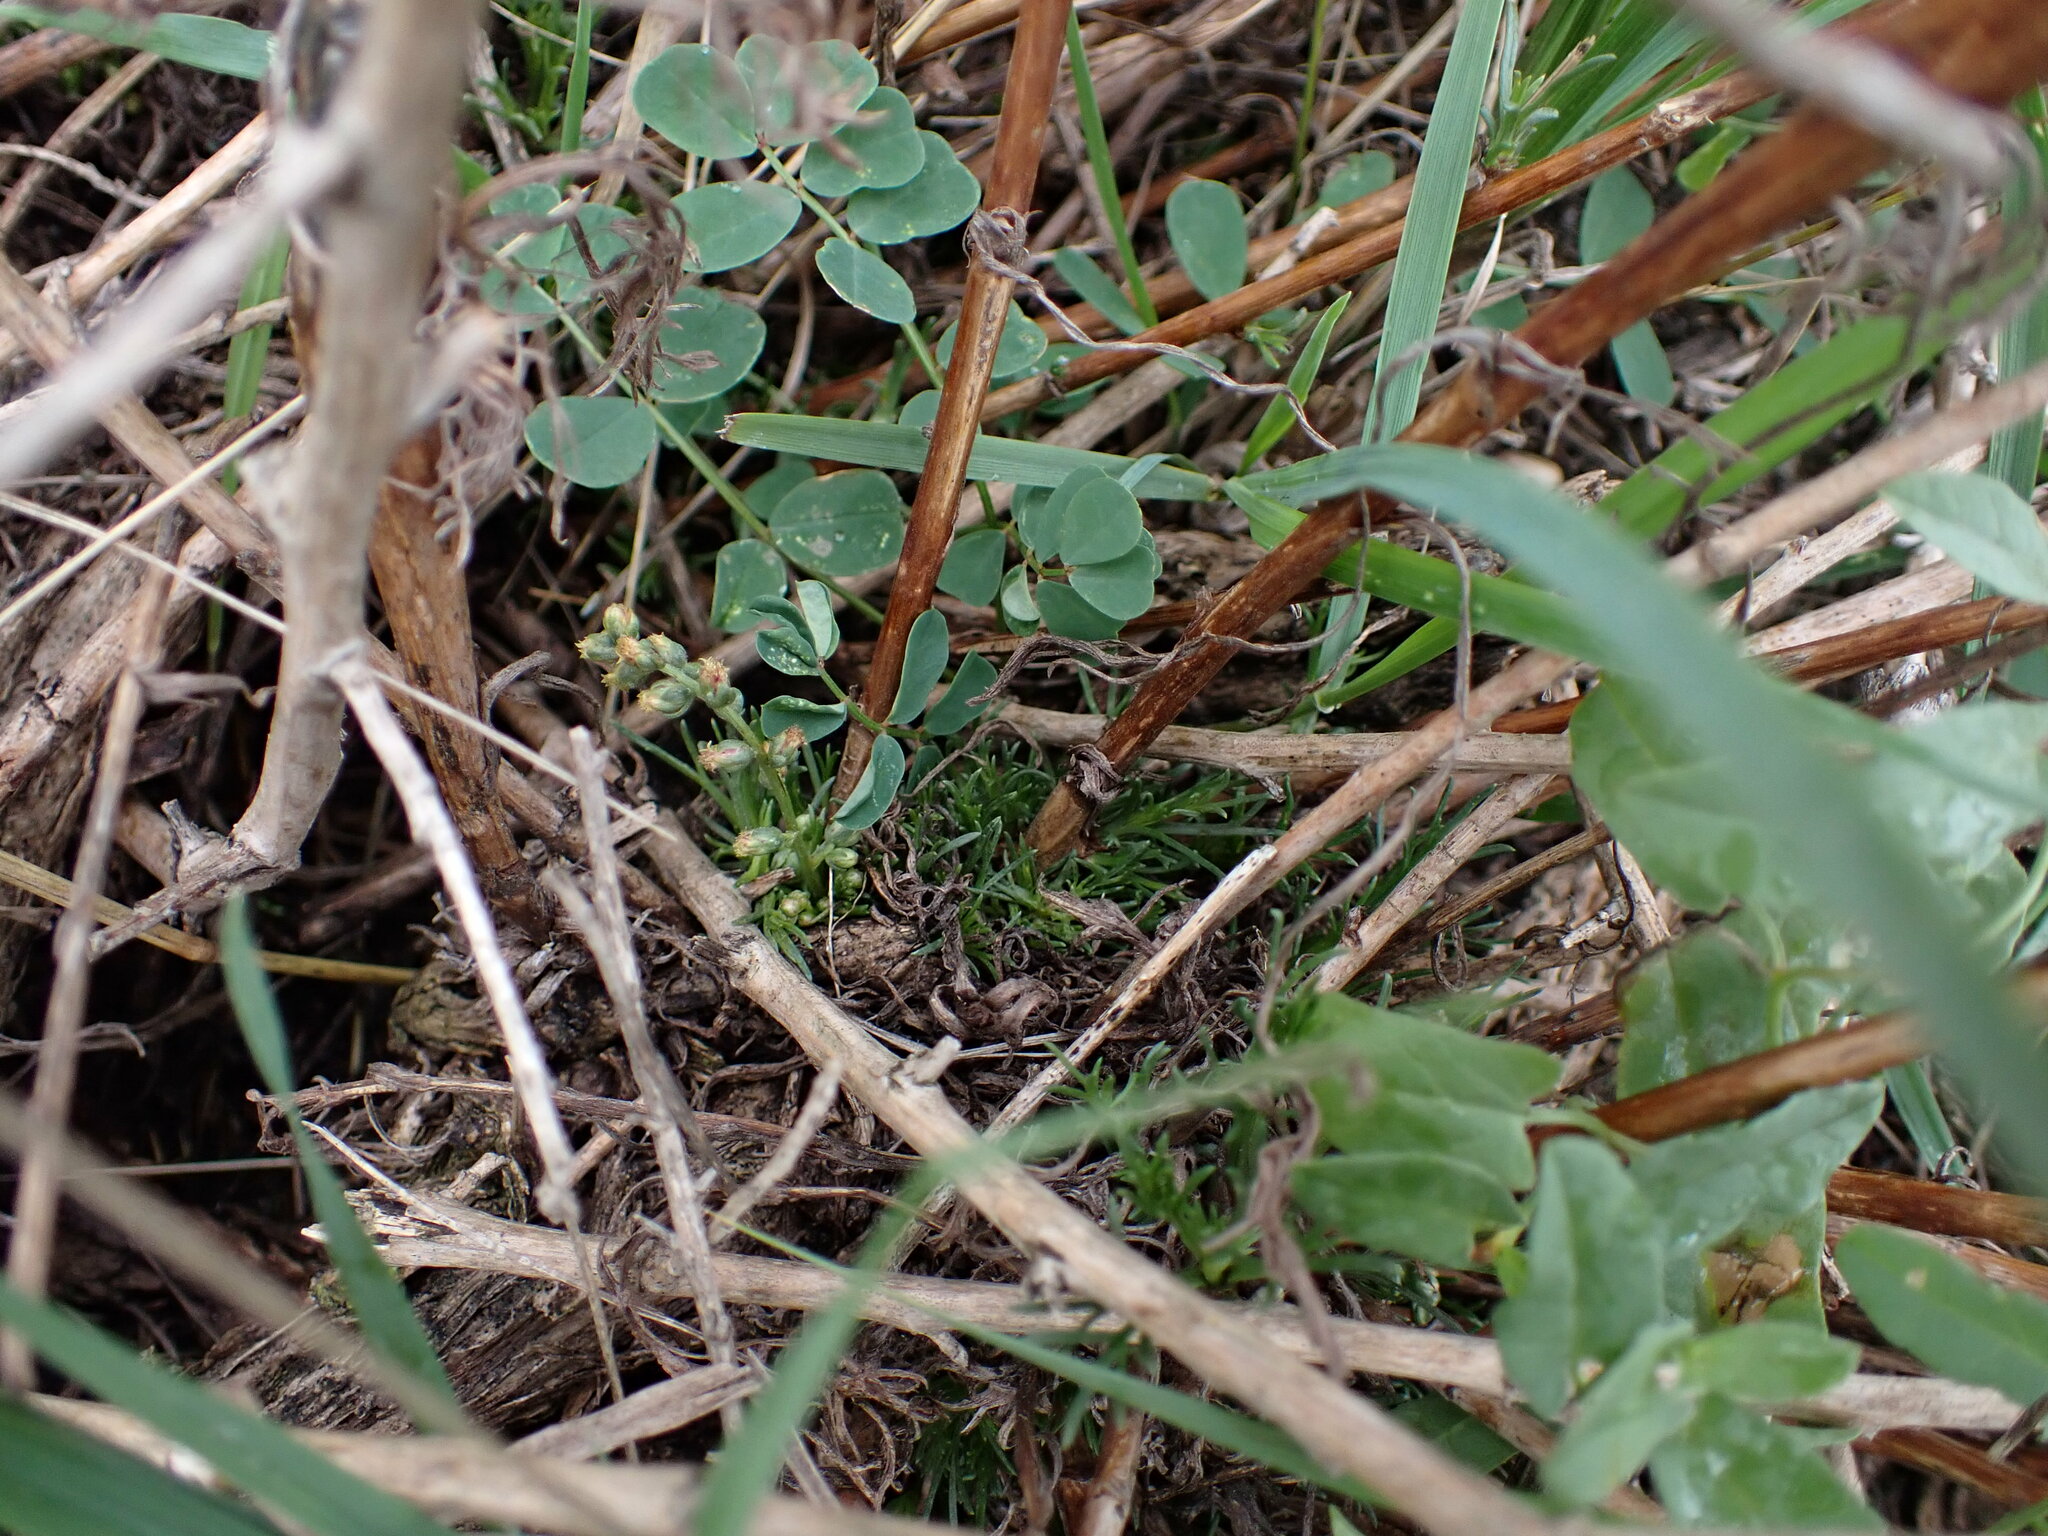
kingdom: Plantae
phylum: Tracheophyta
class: Magnoliopsida
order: Asterales
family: Asteraceae
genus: Artemisia
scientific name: Artemisia campestris
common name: Field wormwood
